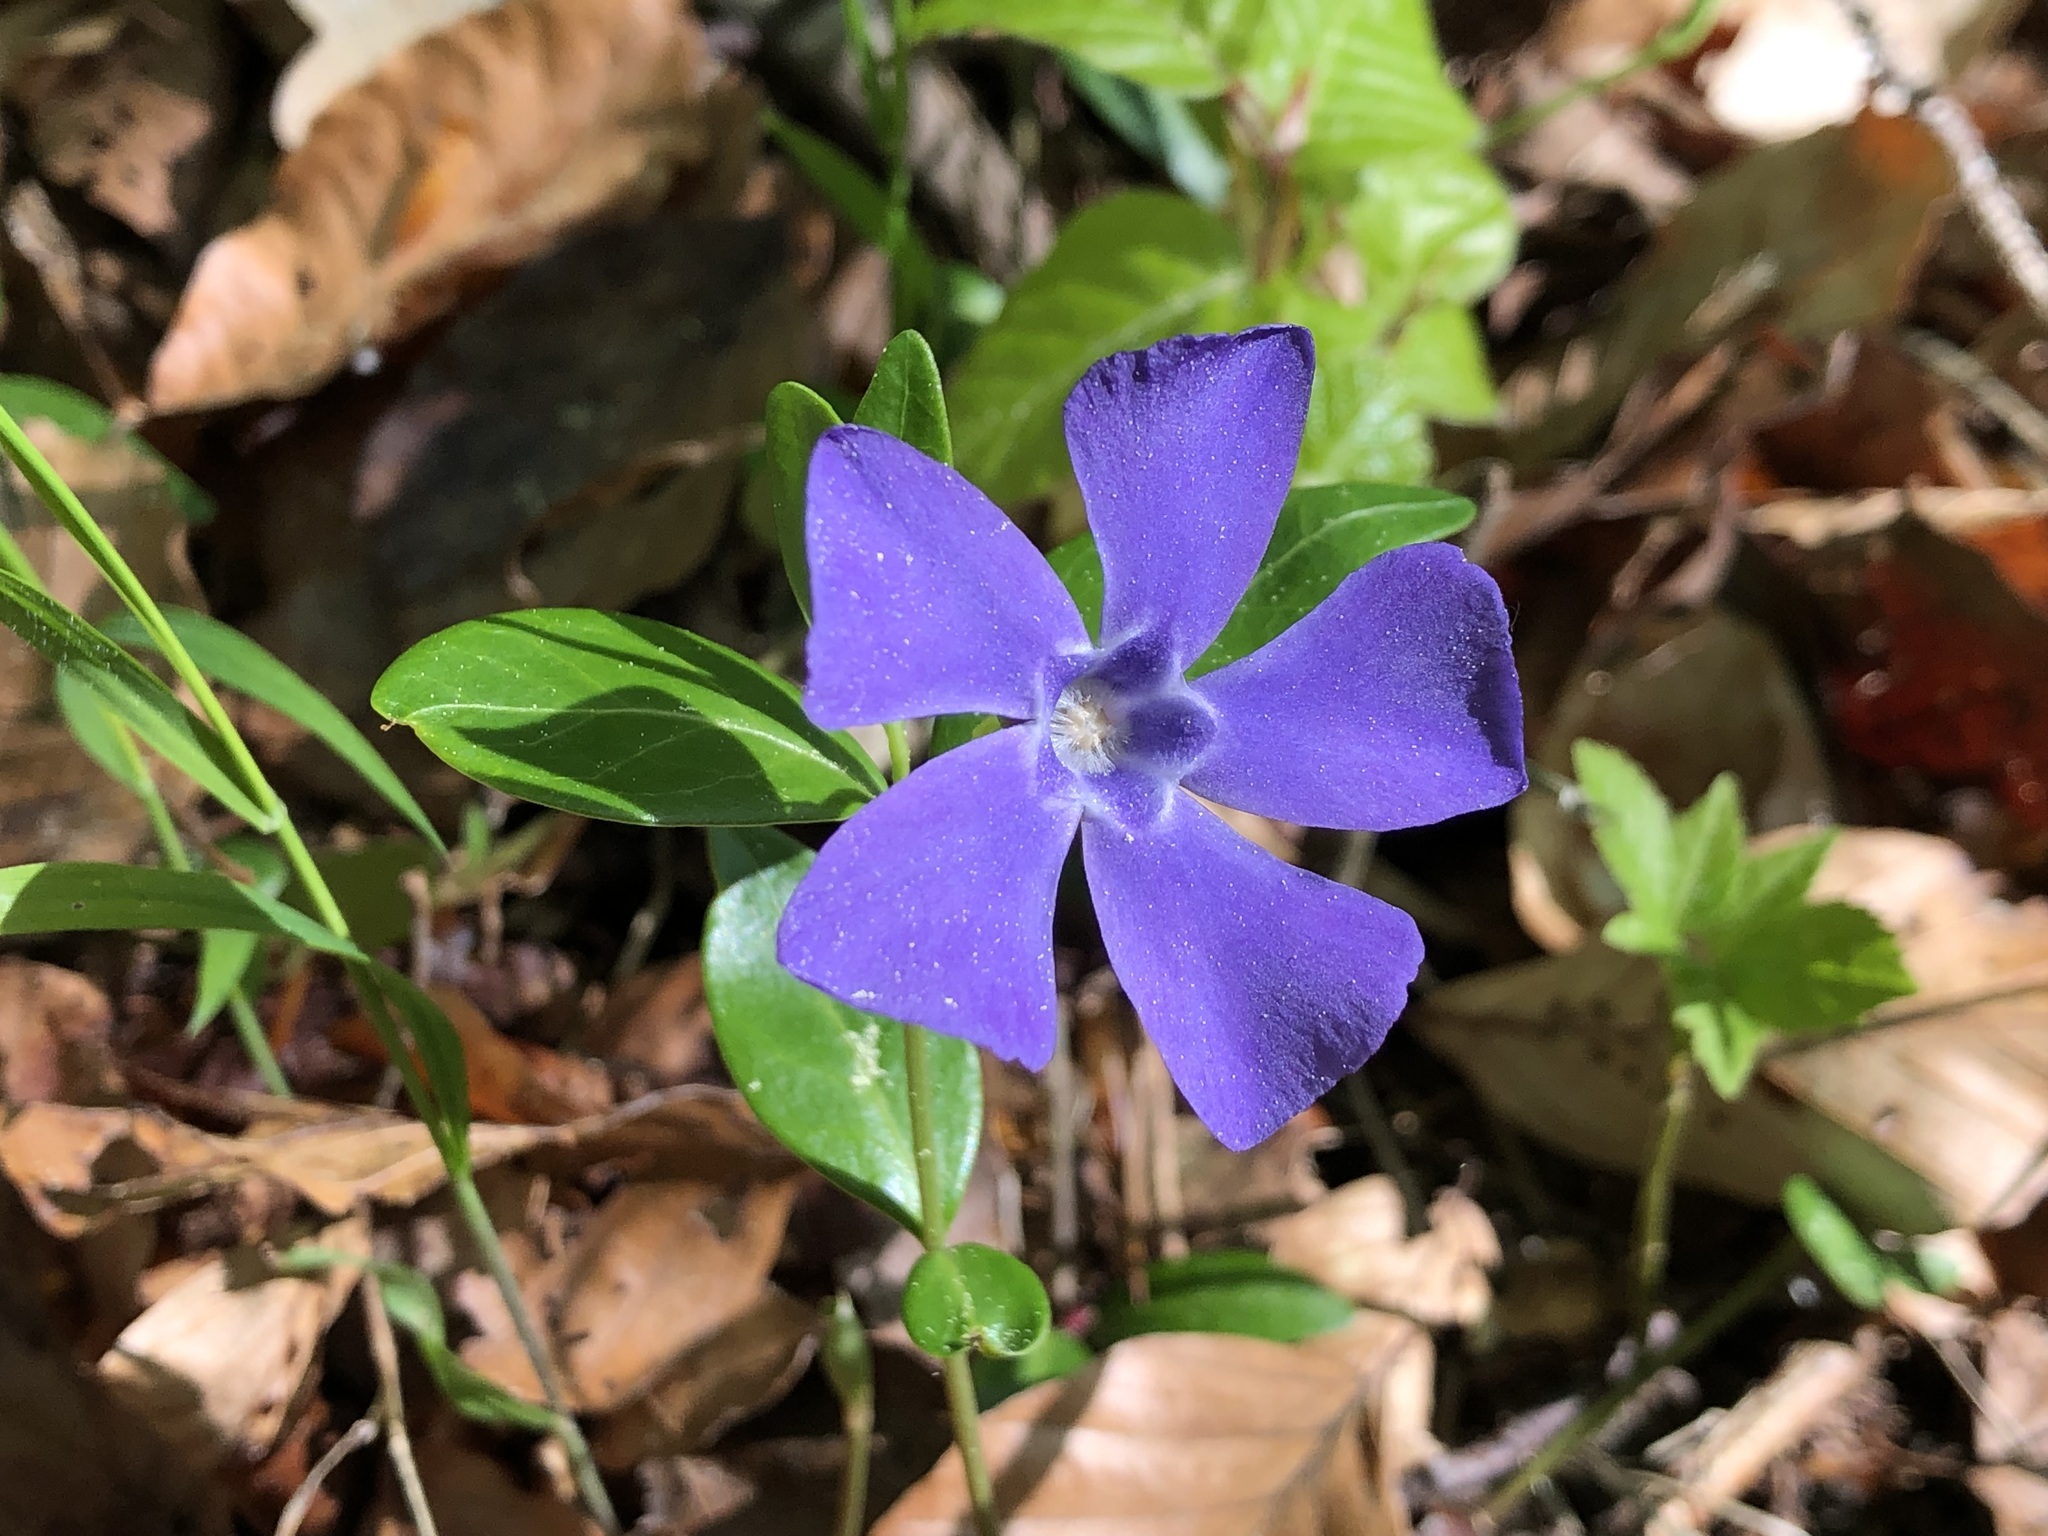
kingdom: Plantae
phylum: Tracheophyta
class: Magnoliopsida
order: Gentianales
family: Apocynaceae
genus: Vinca
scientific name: Vinca minor
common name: Lesser periwinkle
